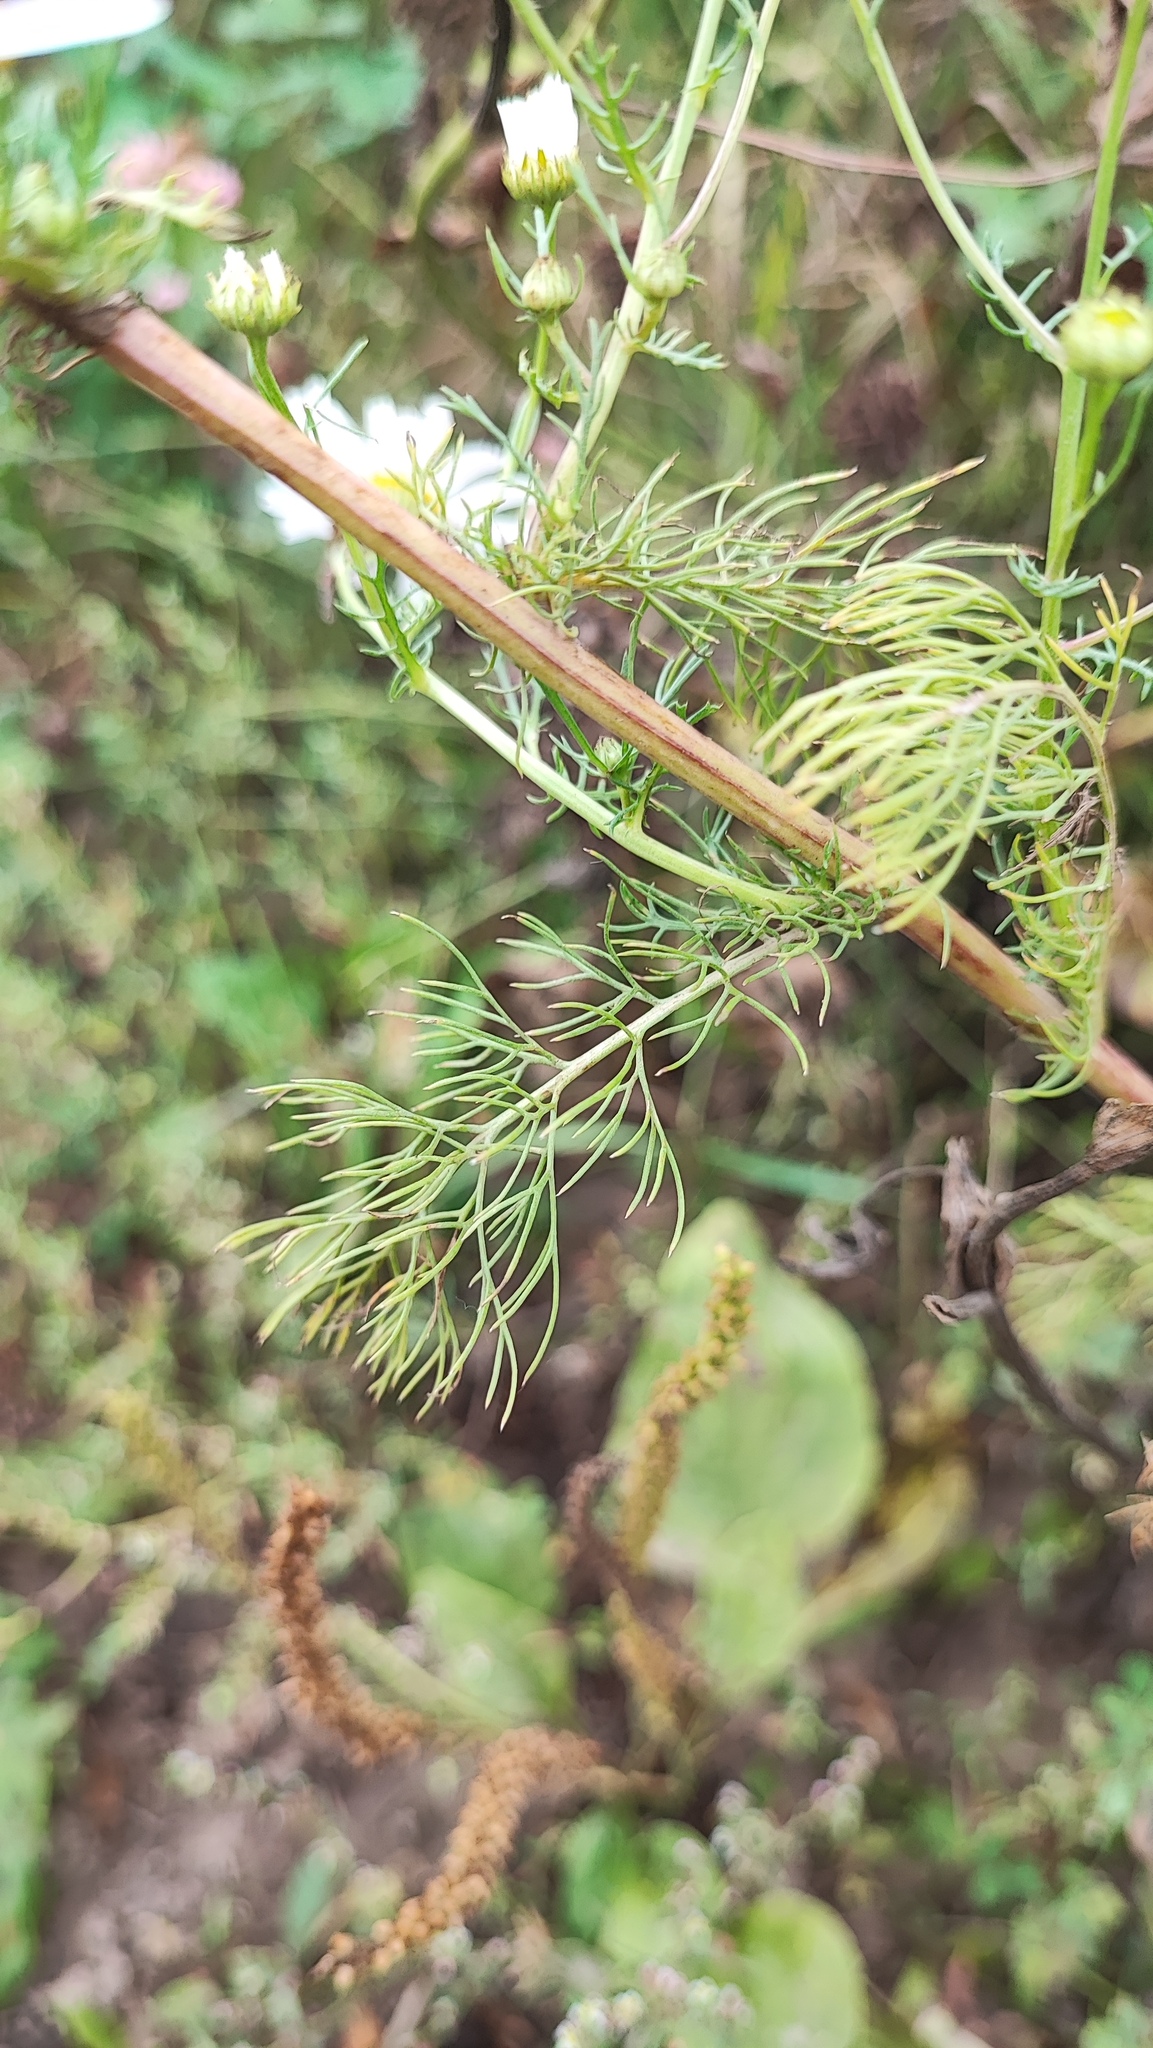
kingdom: Plantae
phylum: Tracheophyta
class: Magnoliopsida
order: Asterales
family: Asteraceae
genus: Tripleurospermum
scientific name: Tripleurospermum inodorum
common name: Scentless mayweed
